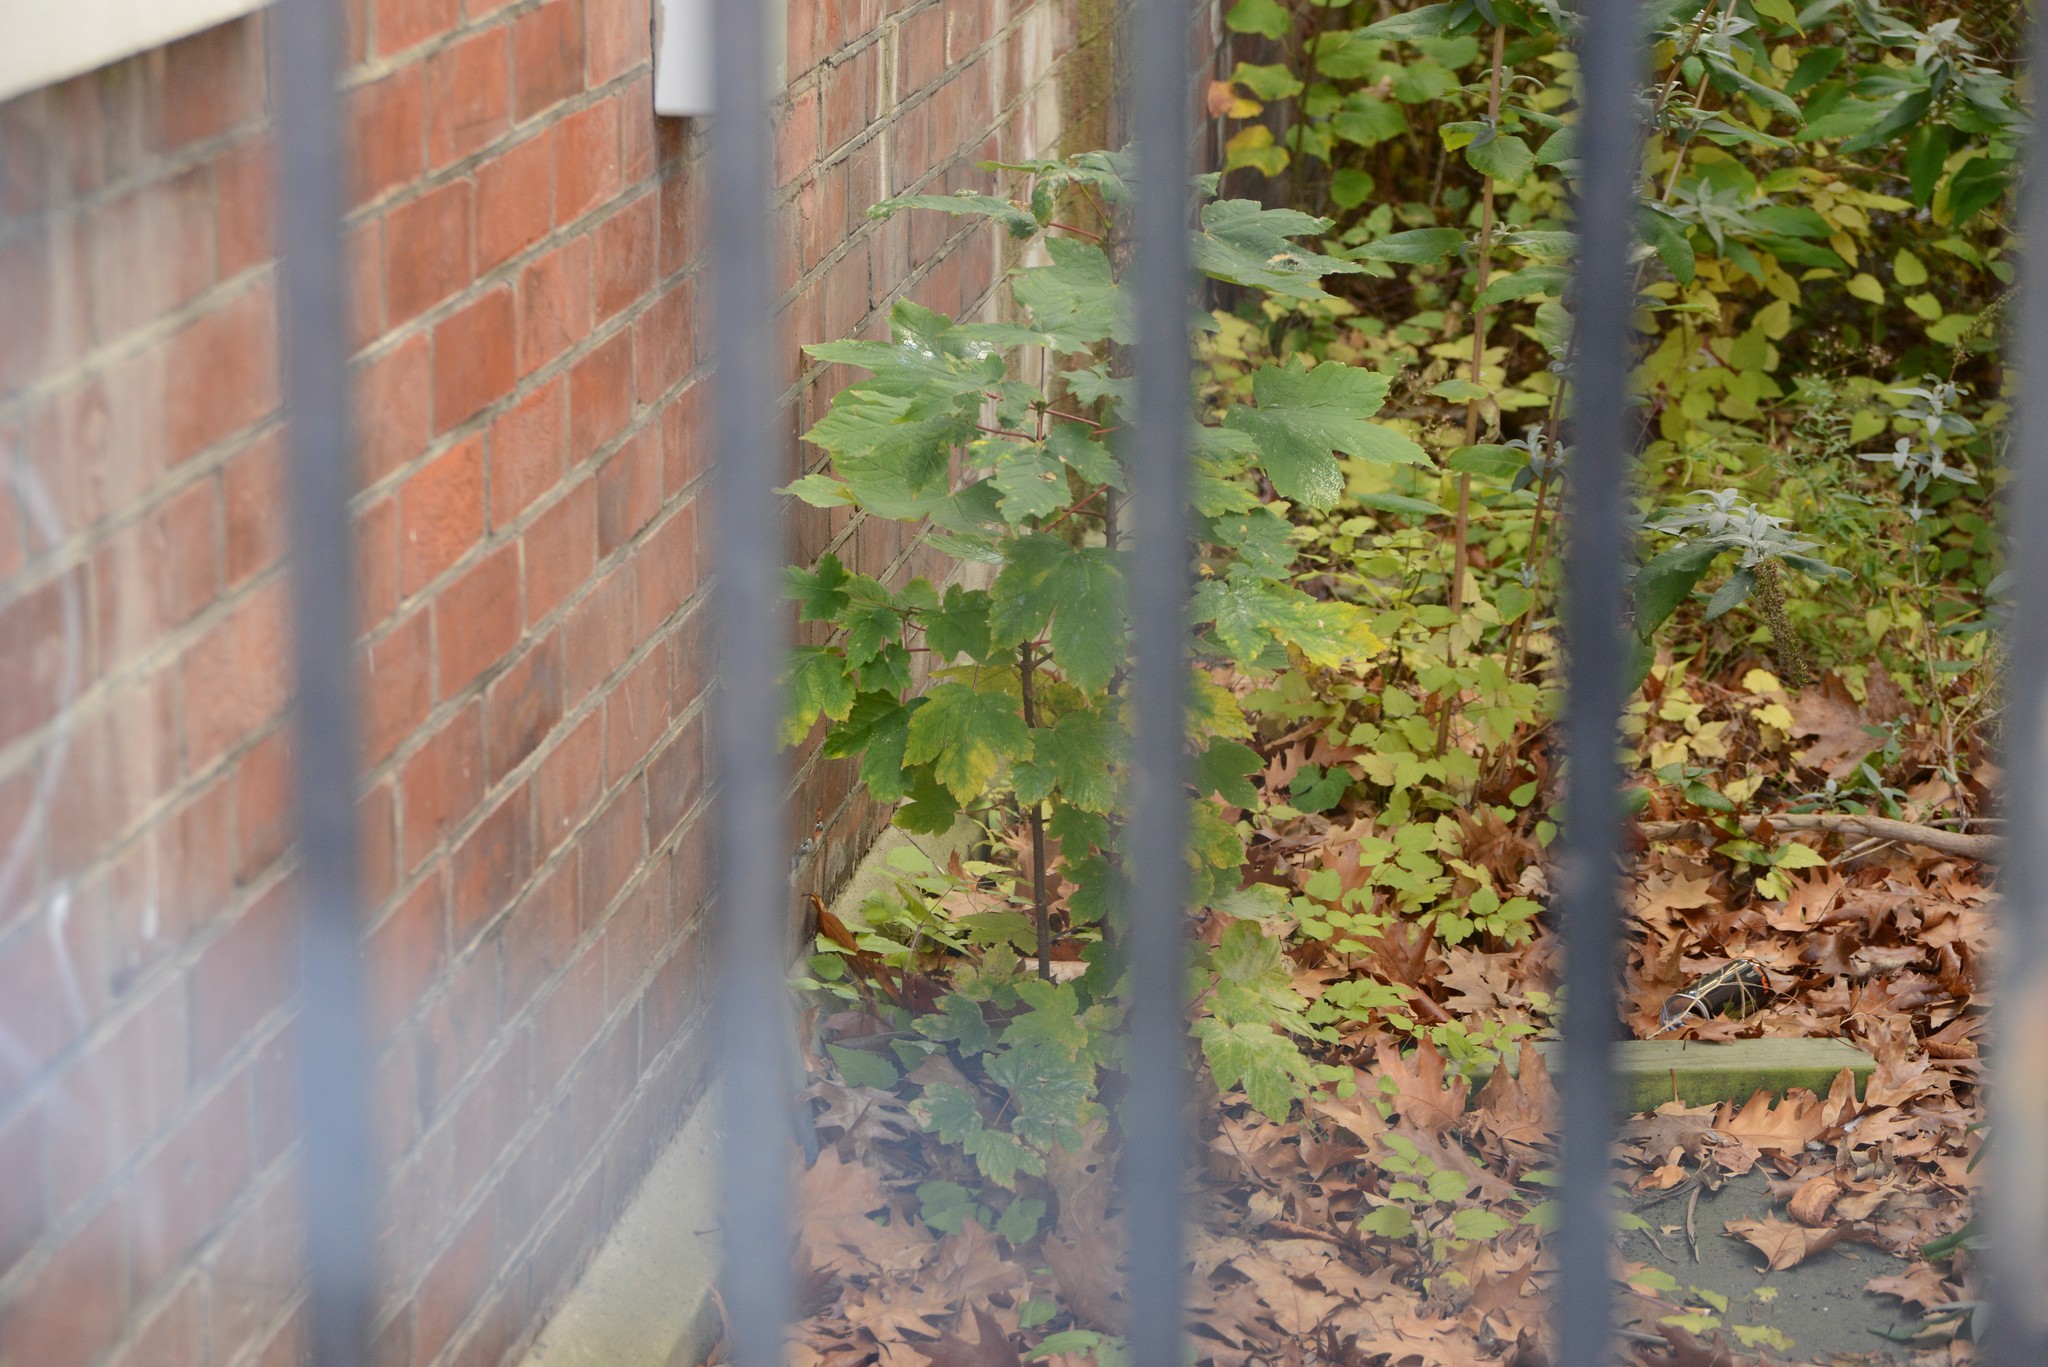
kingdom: Plantae
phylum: Tracheophyta
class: Magnoliopsida
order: Sapindales
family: Sapindaceae
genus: Acer
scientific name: Acer pseudoplatanus
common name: Sycamore
